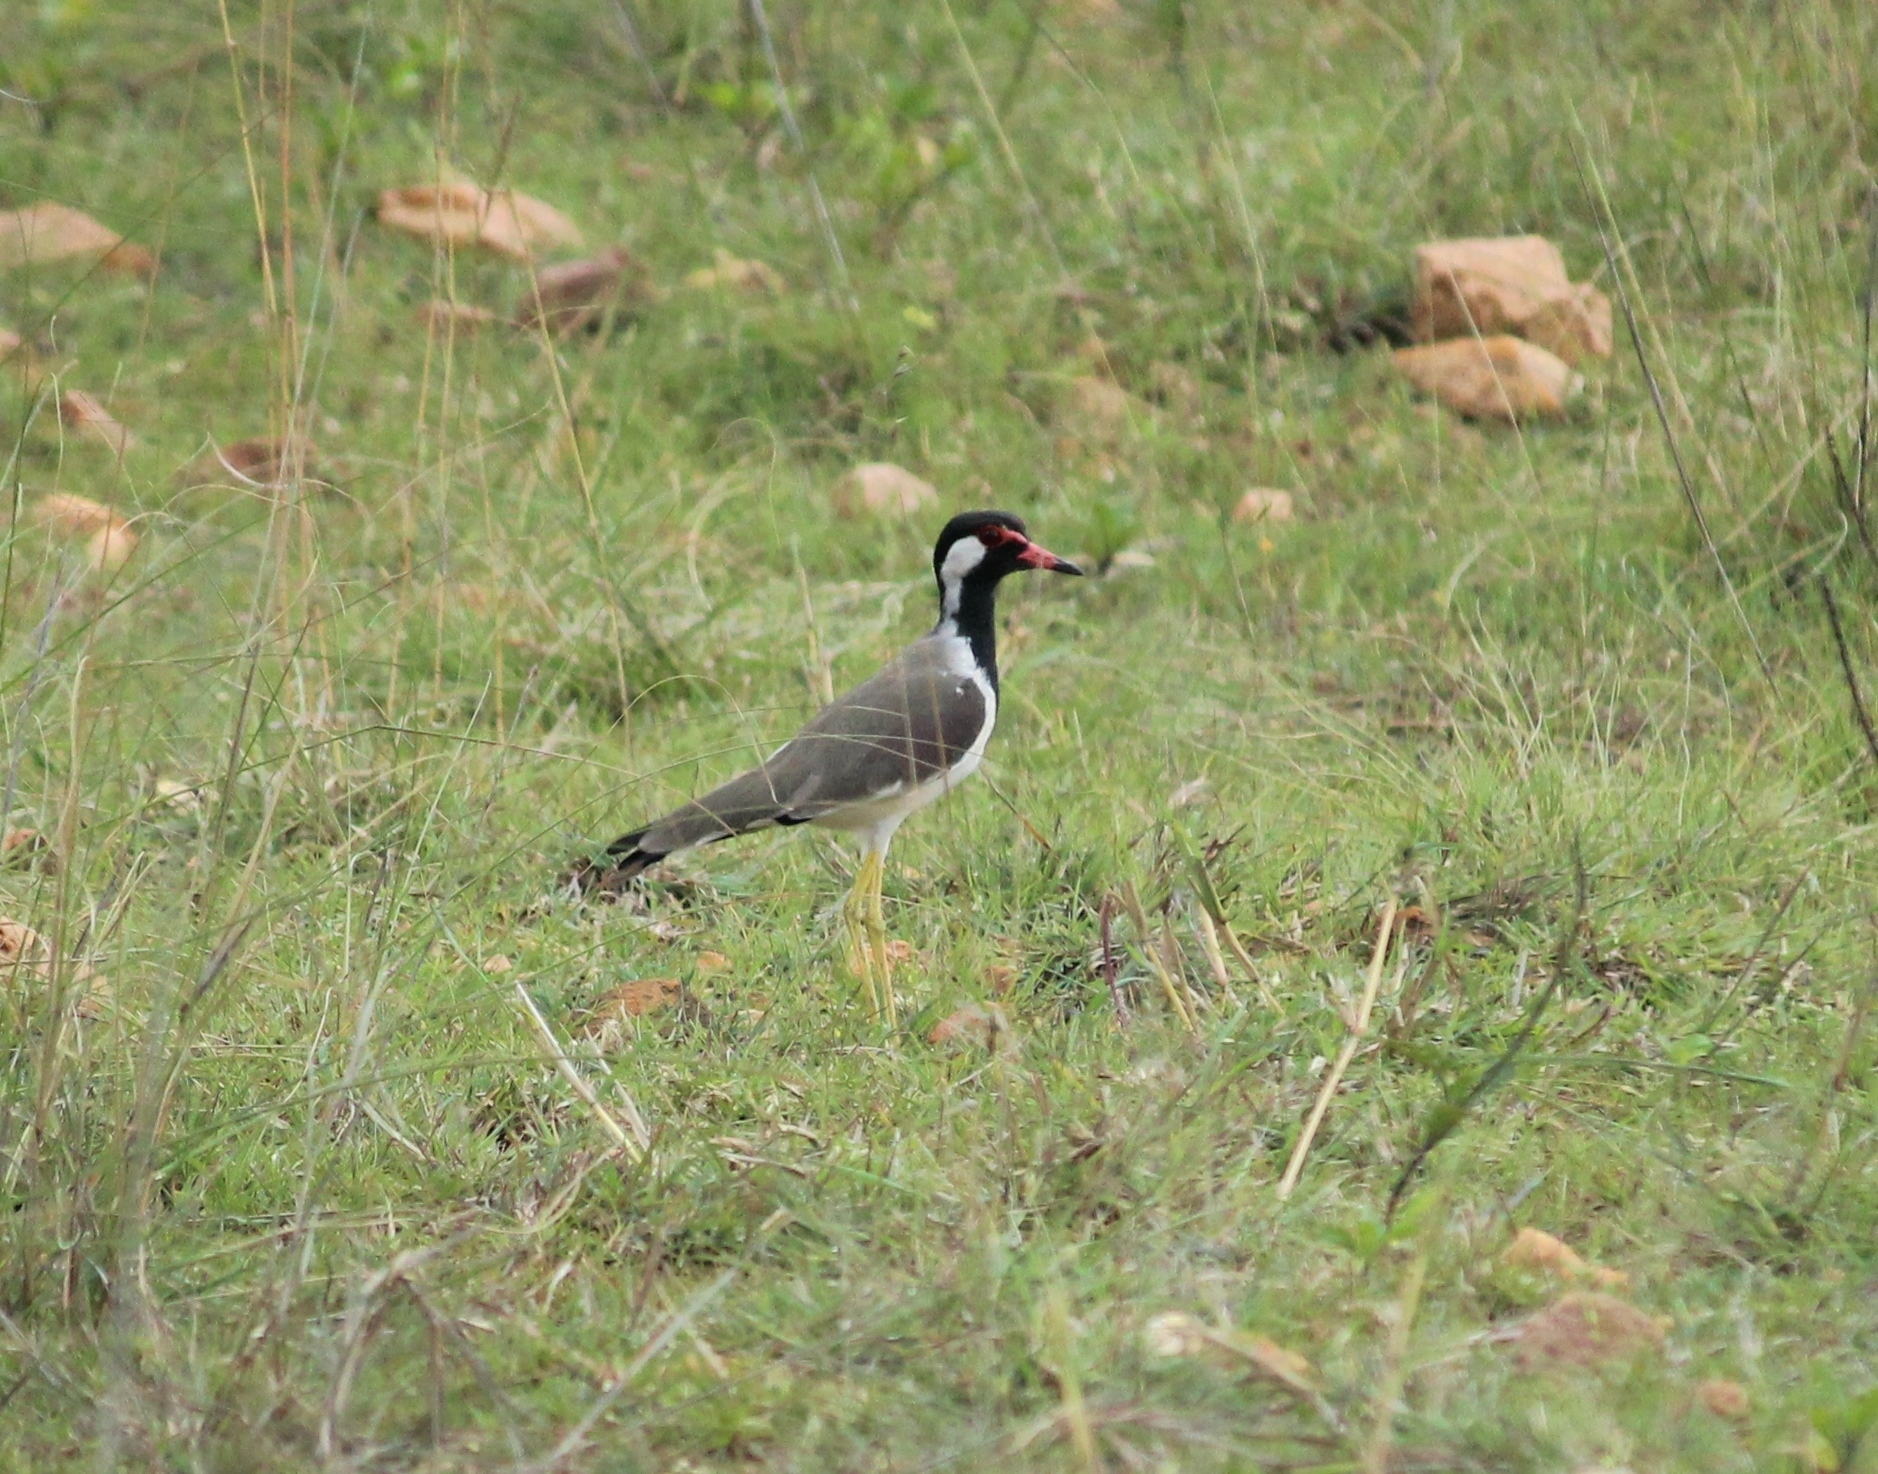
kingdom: Animalia
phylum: Chordata
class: Aves
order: Charadriiformes
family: Charadriidae
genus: Vanellus
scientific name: Vanellus indicus
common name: Red-wattled lapwing
